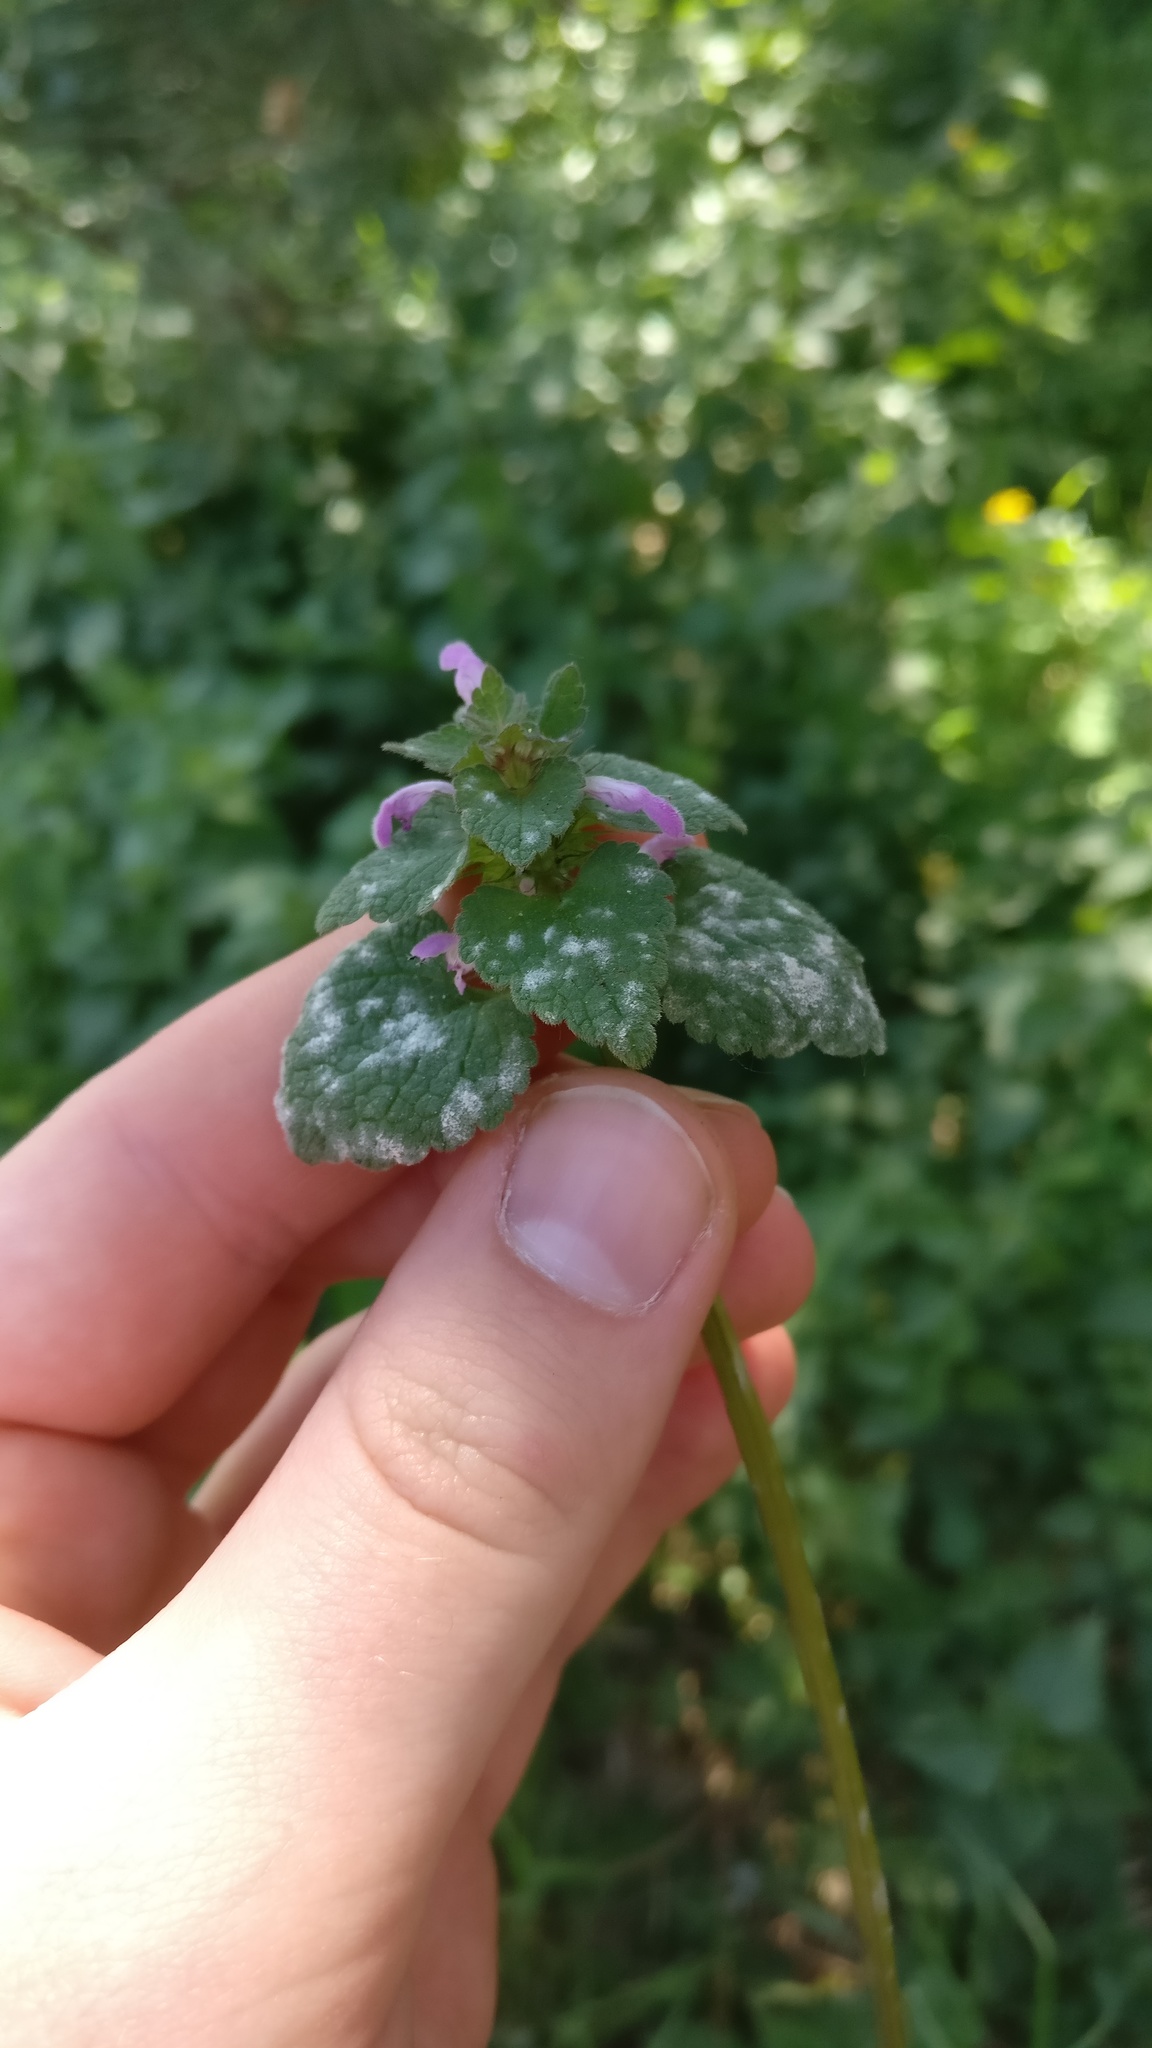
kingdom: Plantae
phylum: Tracheophyta
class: Magnoliopsida
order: Lamiales
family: Lamiaceae
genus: Lamium
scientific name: Lamium purpureum
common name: Red dead-nettle
